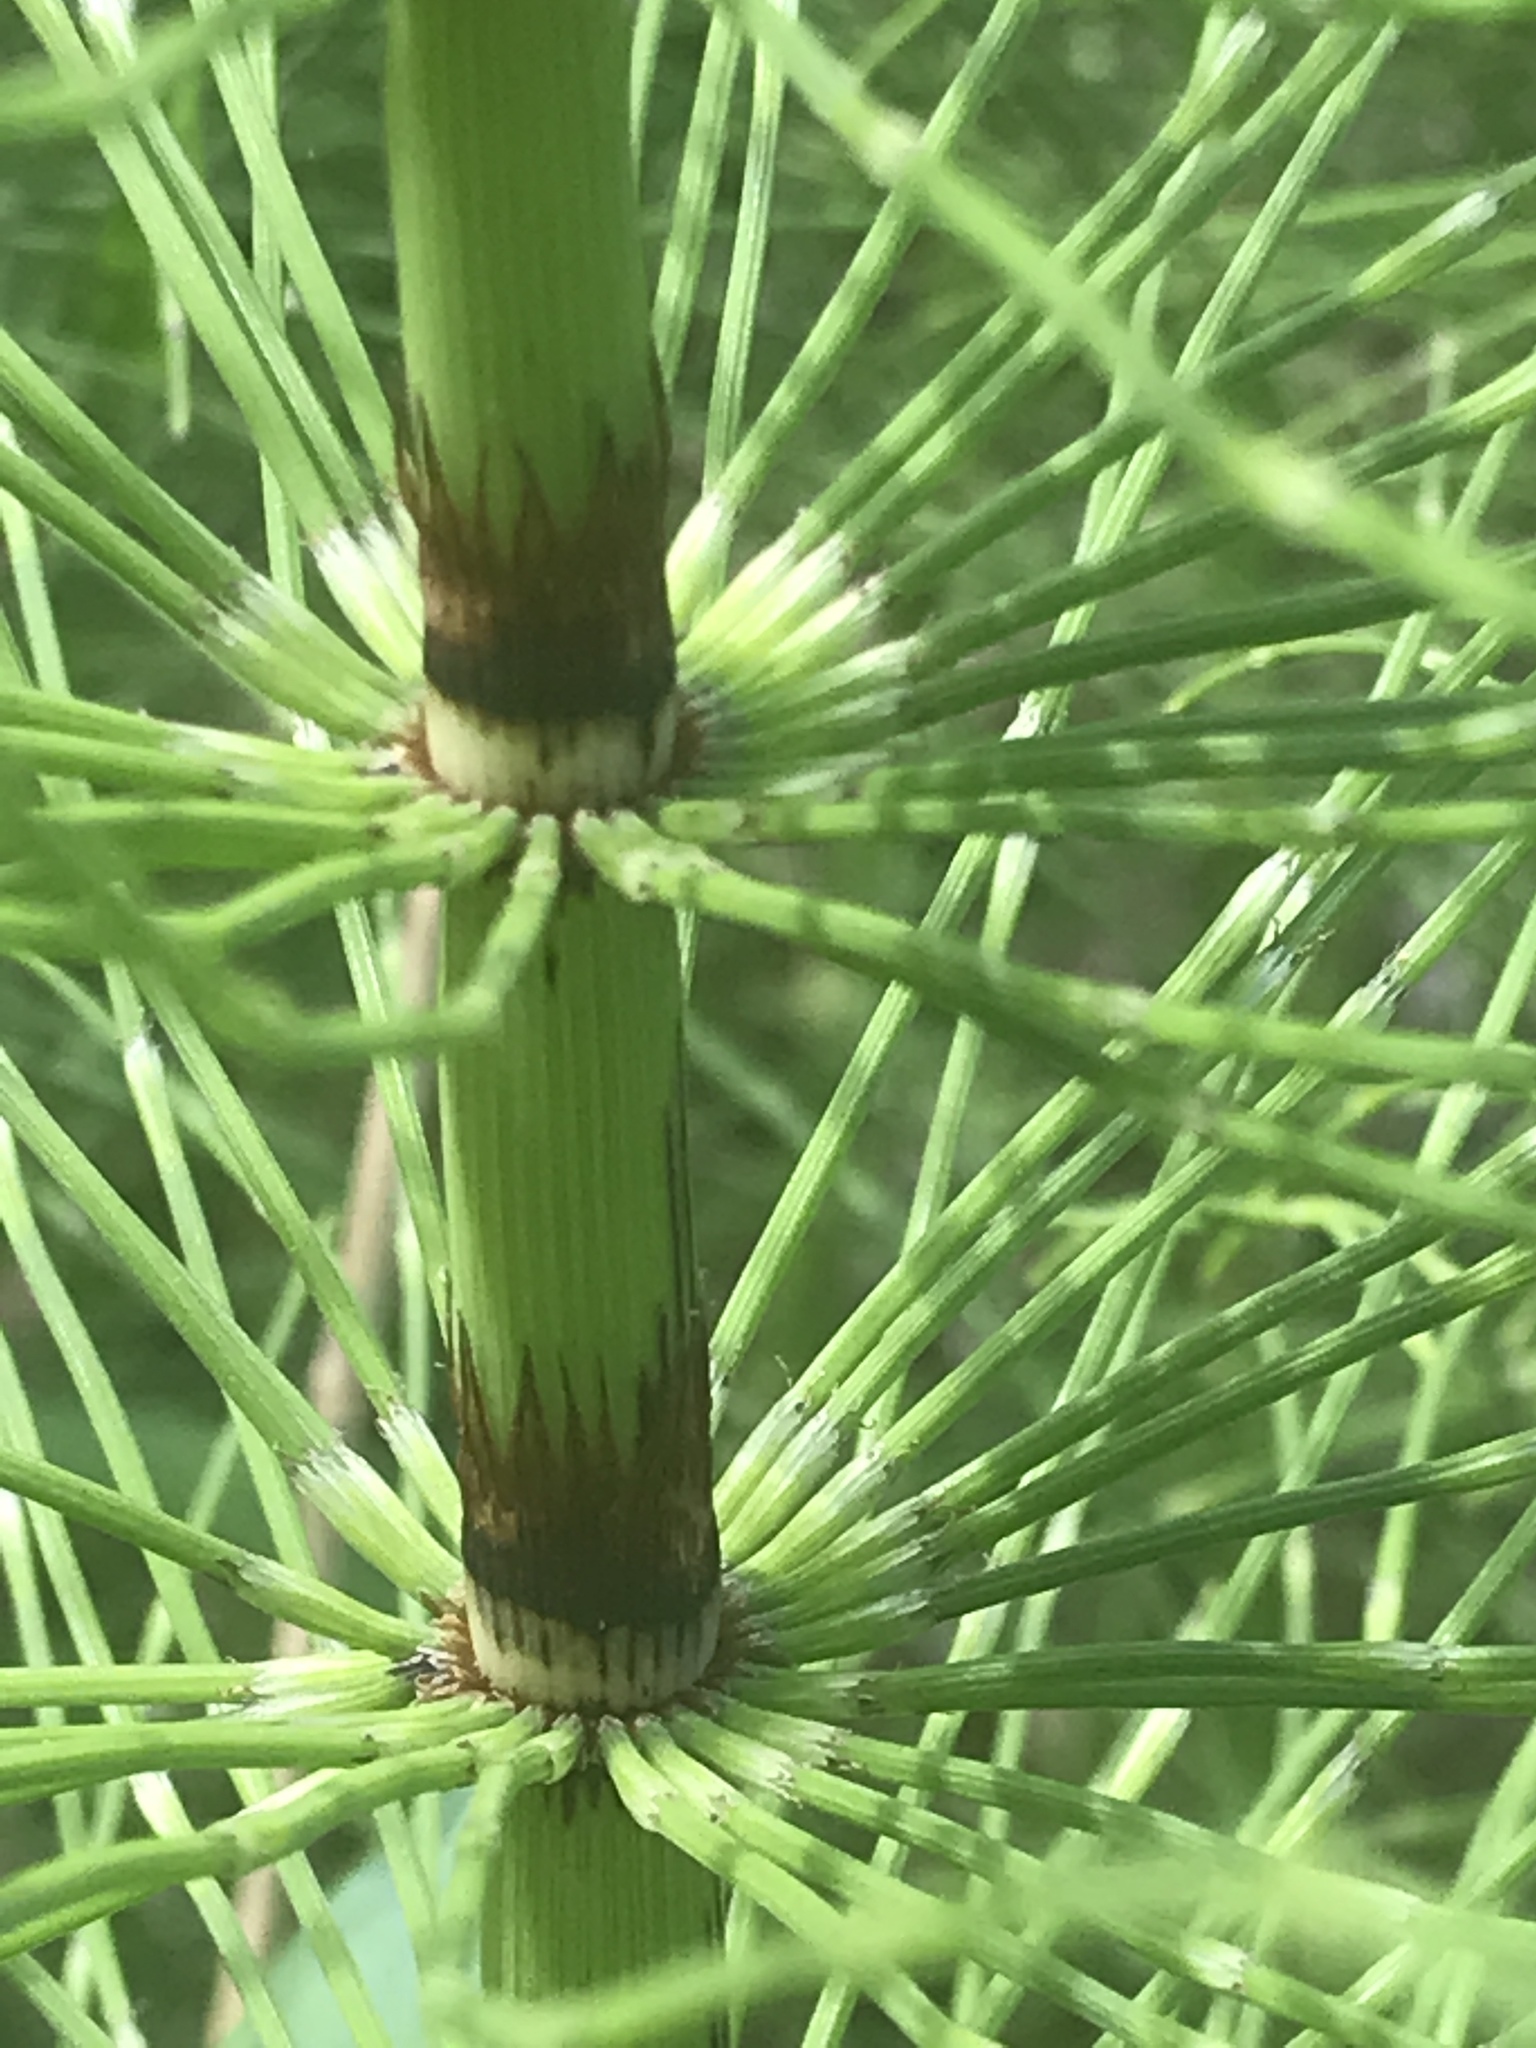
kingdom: Plantae
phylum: Tracheophyta
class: Polypodiopsida
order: Equisetales
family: Equisetaceae
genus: Equisetum
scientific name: Equisetum telmateia
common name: Great horsetail
